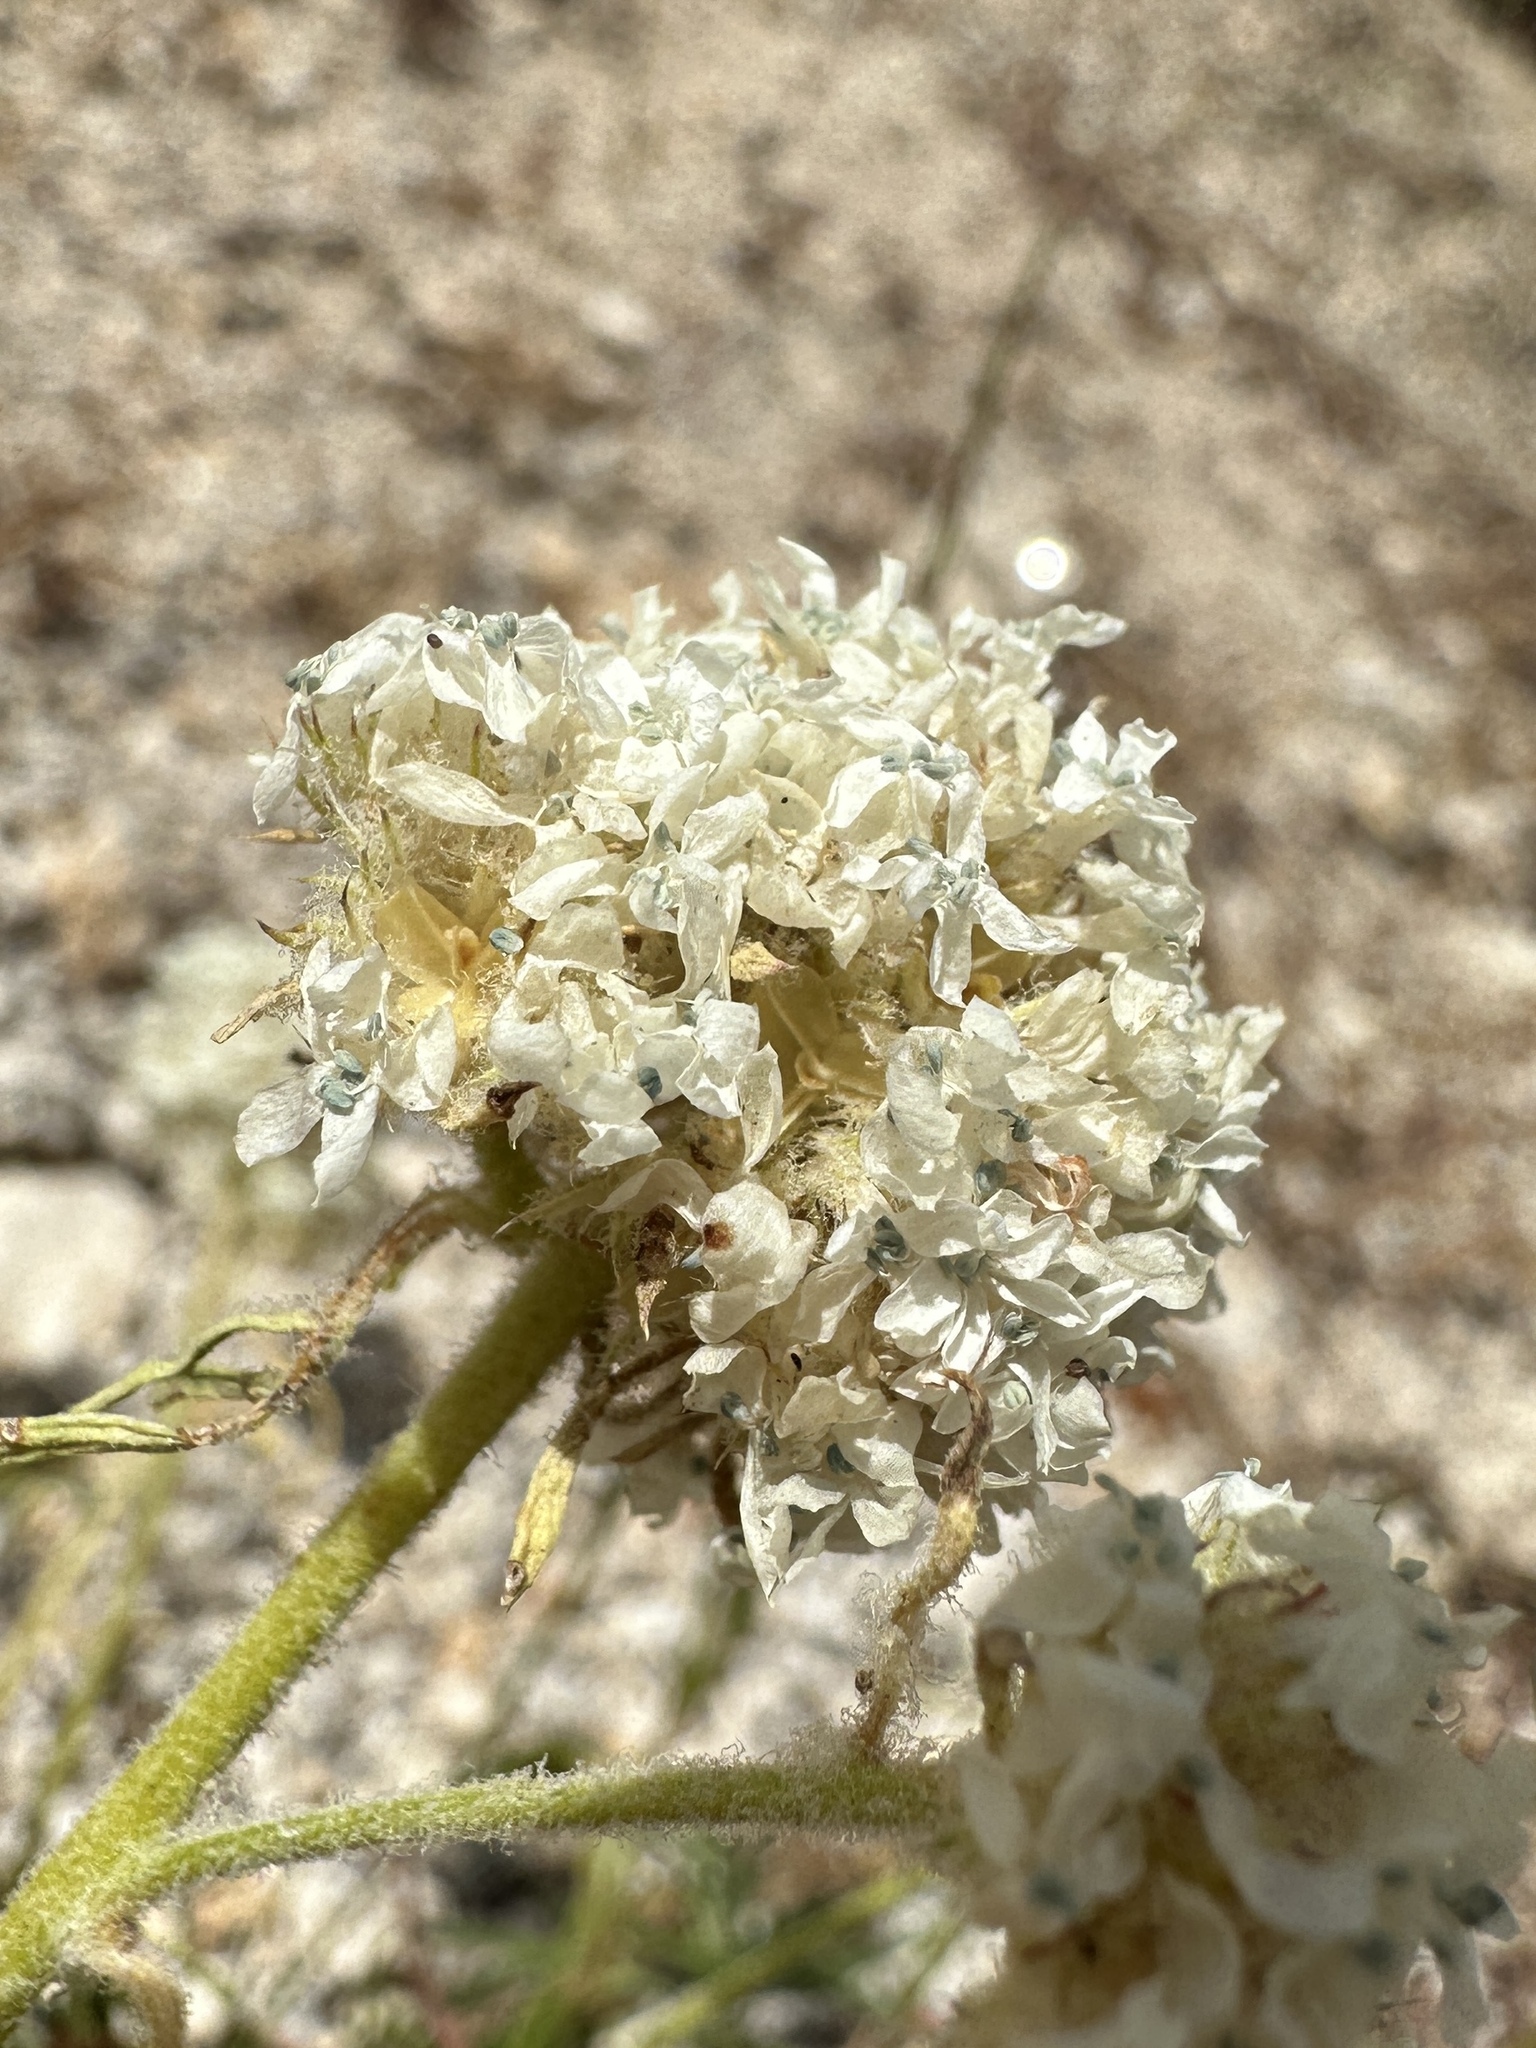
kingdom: Plantae
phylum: Tracheophyta
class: Magnoliopsida
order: Ericales
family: Polemoniaceae
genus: Ipomopsis
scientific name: Ipomopsis congesta
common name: Ball-head gilia
